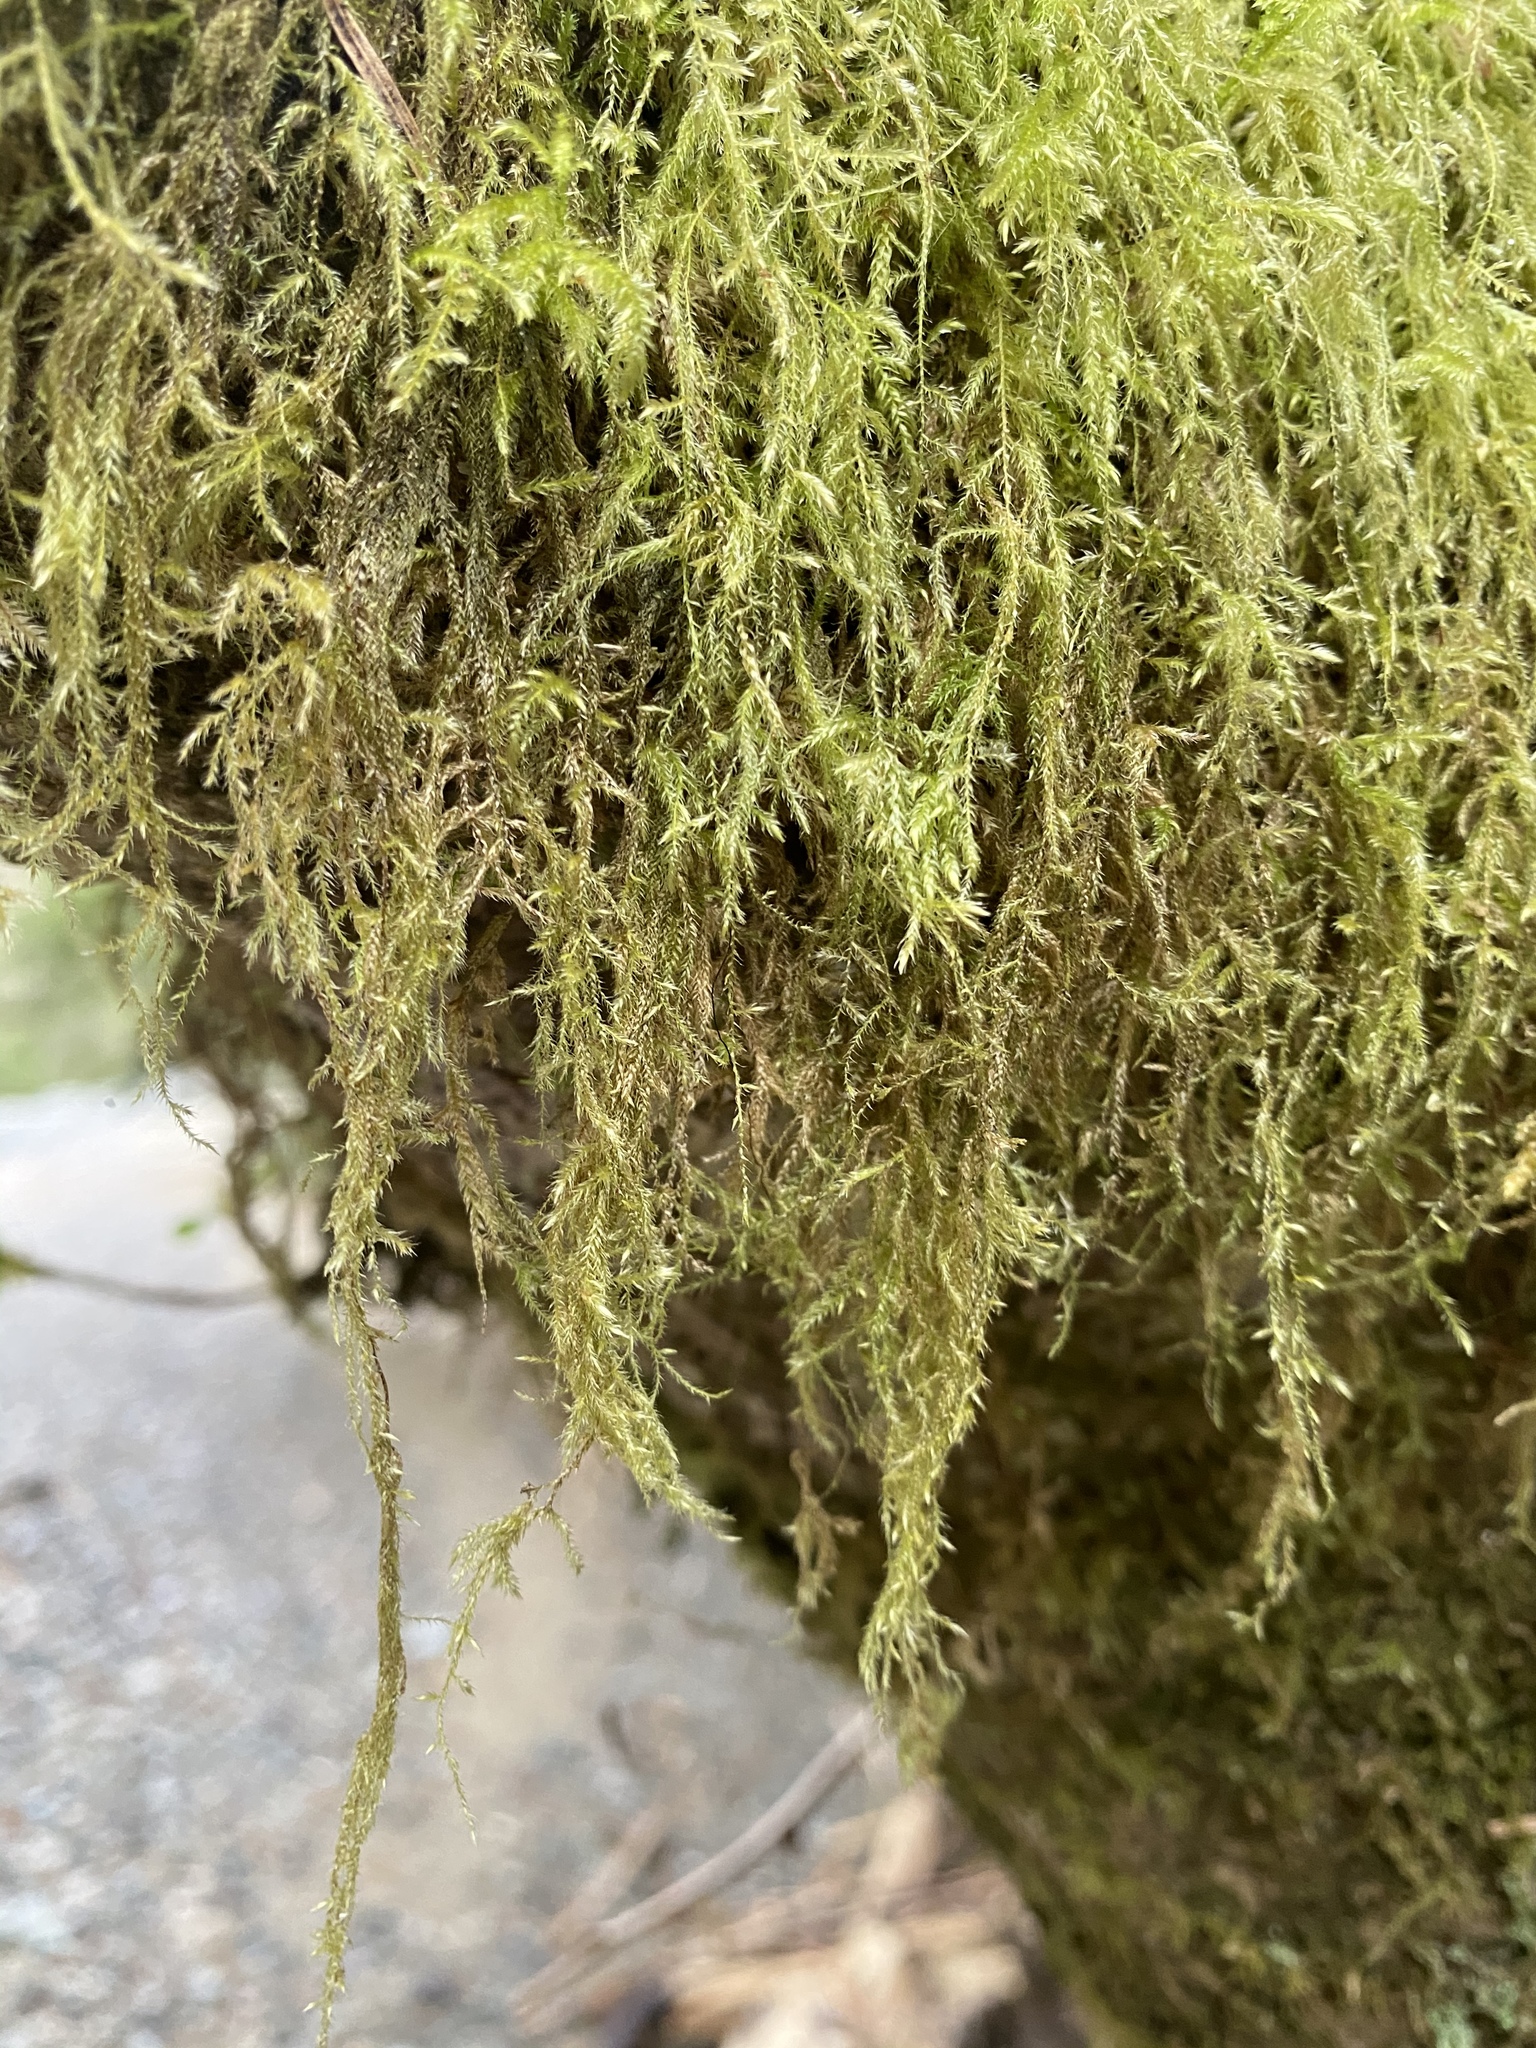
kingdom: Plantae
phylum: Bryophyta
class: Bryopsida
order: Hypnales
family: Lembophyllaceae
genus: Pseudisothecium
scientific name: Pseudisothecium stoloniferum
